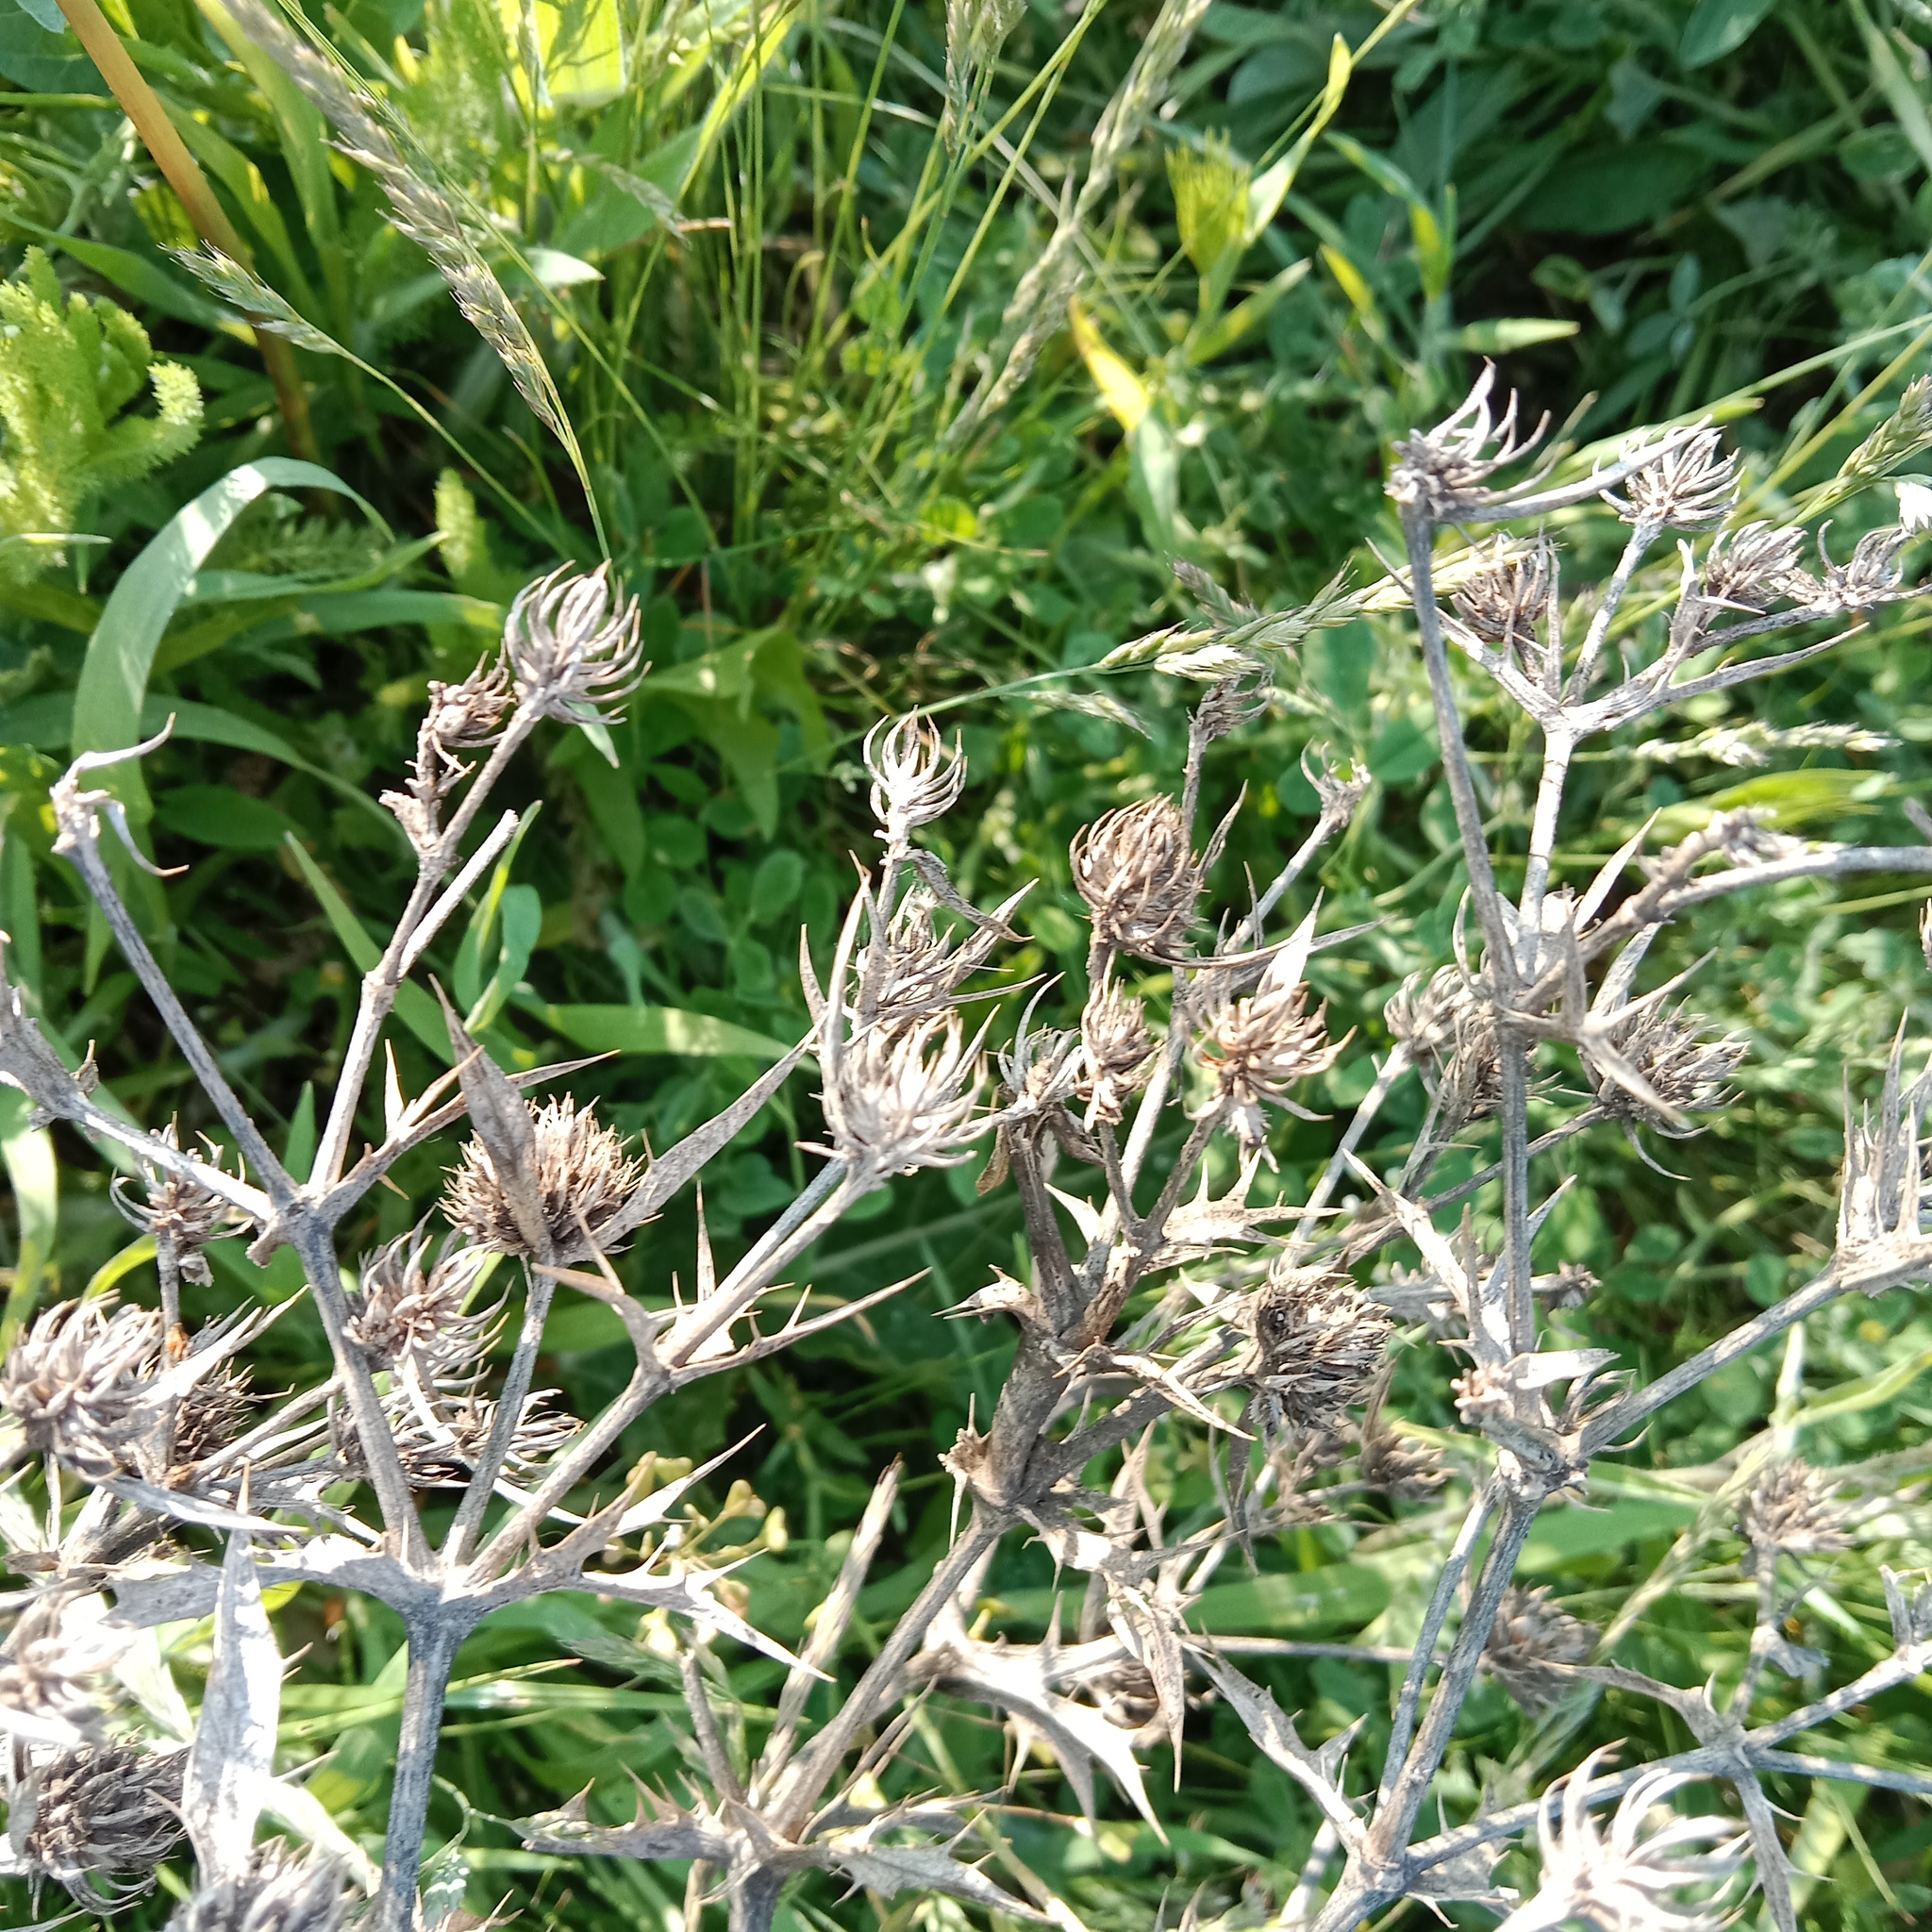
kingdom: Plantae
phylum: Tracheophyta
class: Magnoliopsida
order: Apiales
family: Apiaceae
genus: Eryngium
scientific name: Eryngium campestre
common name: Field eryngo
